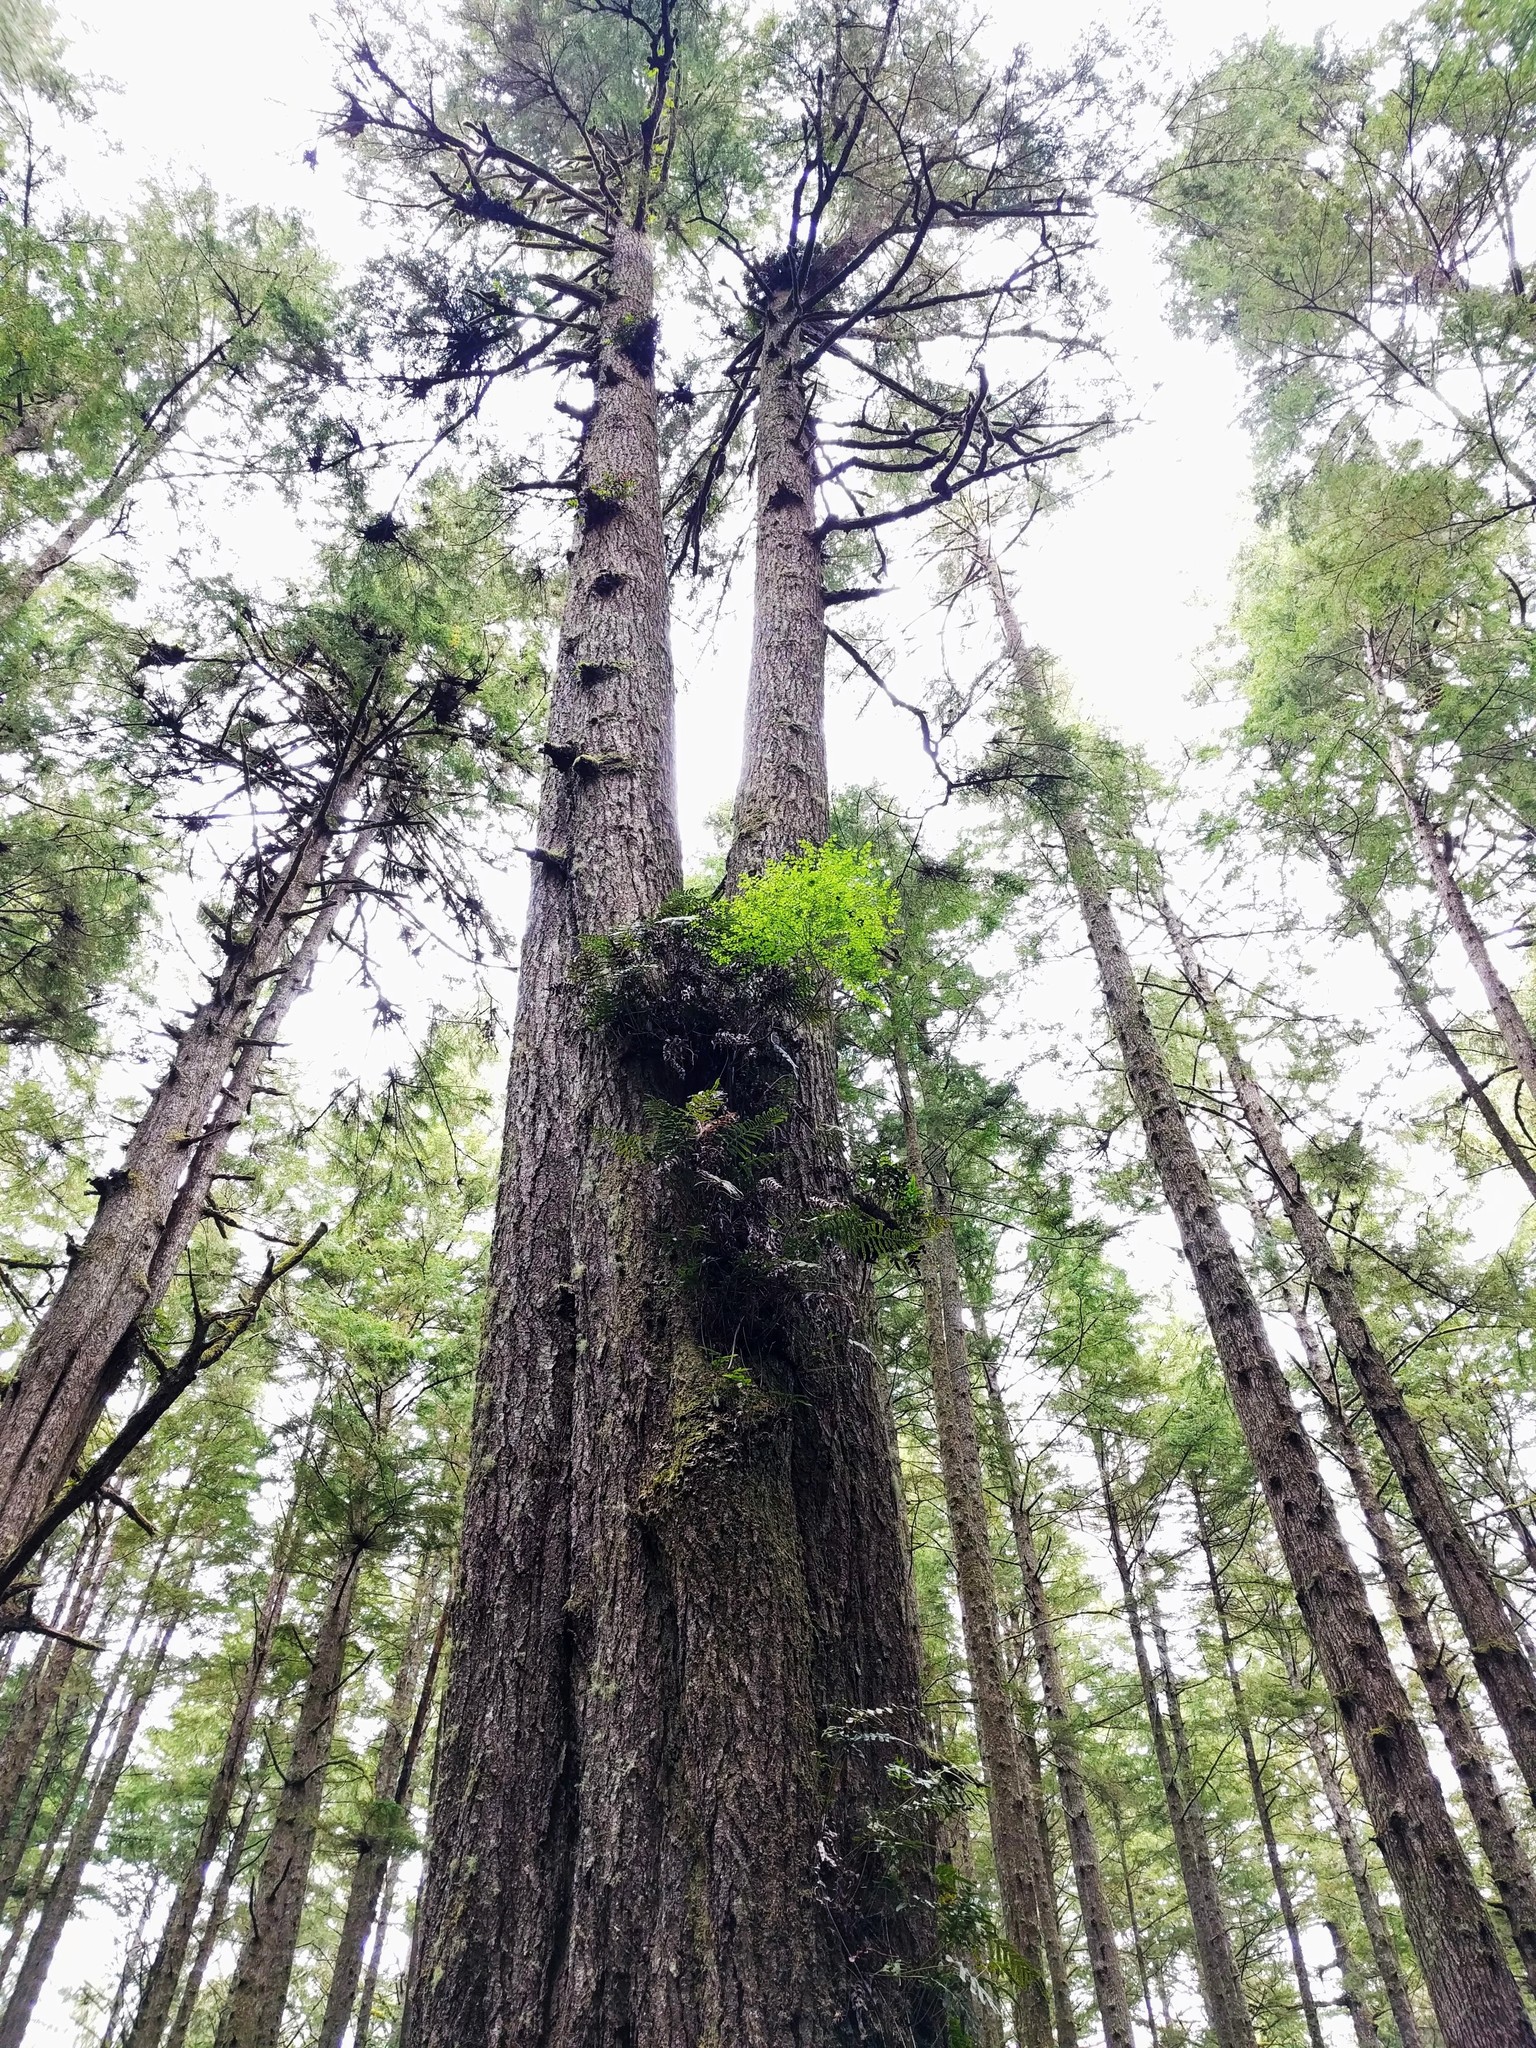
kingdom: Plantae
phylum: Tracheophyta
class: Pinopsida
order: Pinales
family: Pinaceae
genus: Picea
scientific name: Picea sitchensis
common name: Sitka spruce
